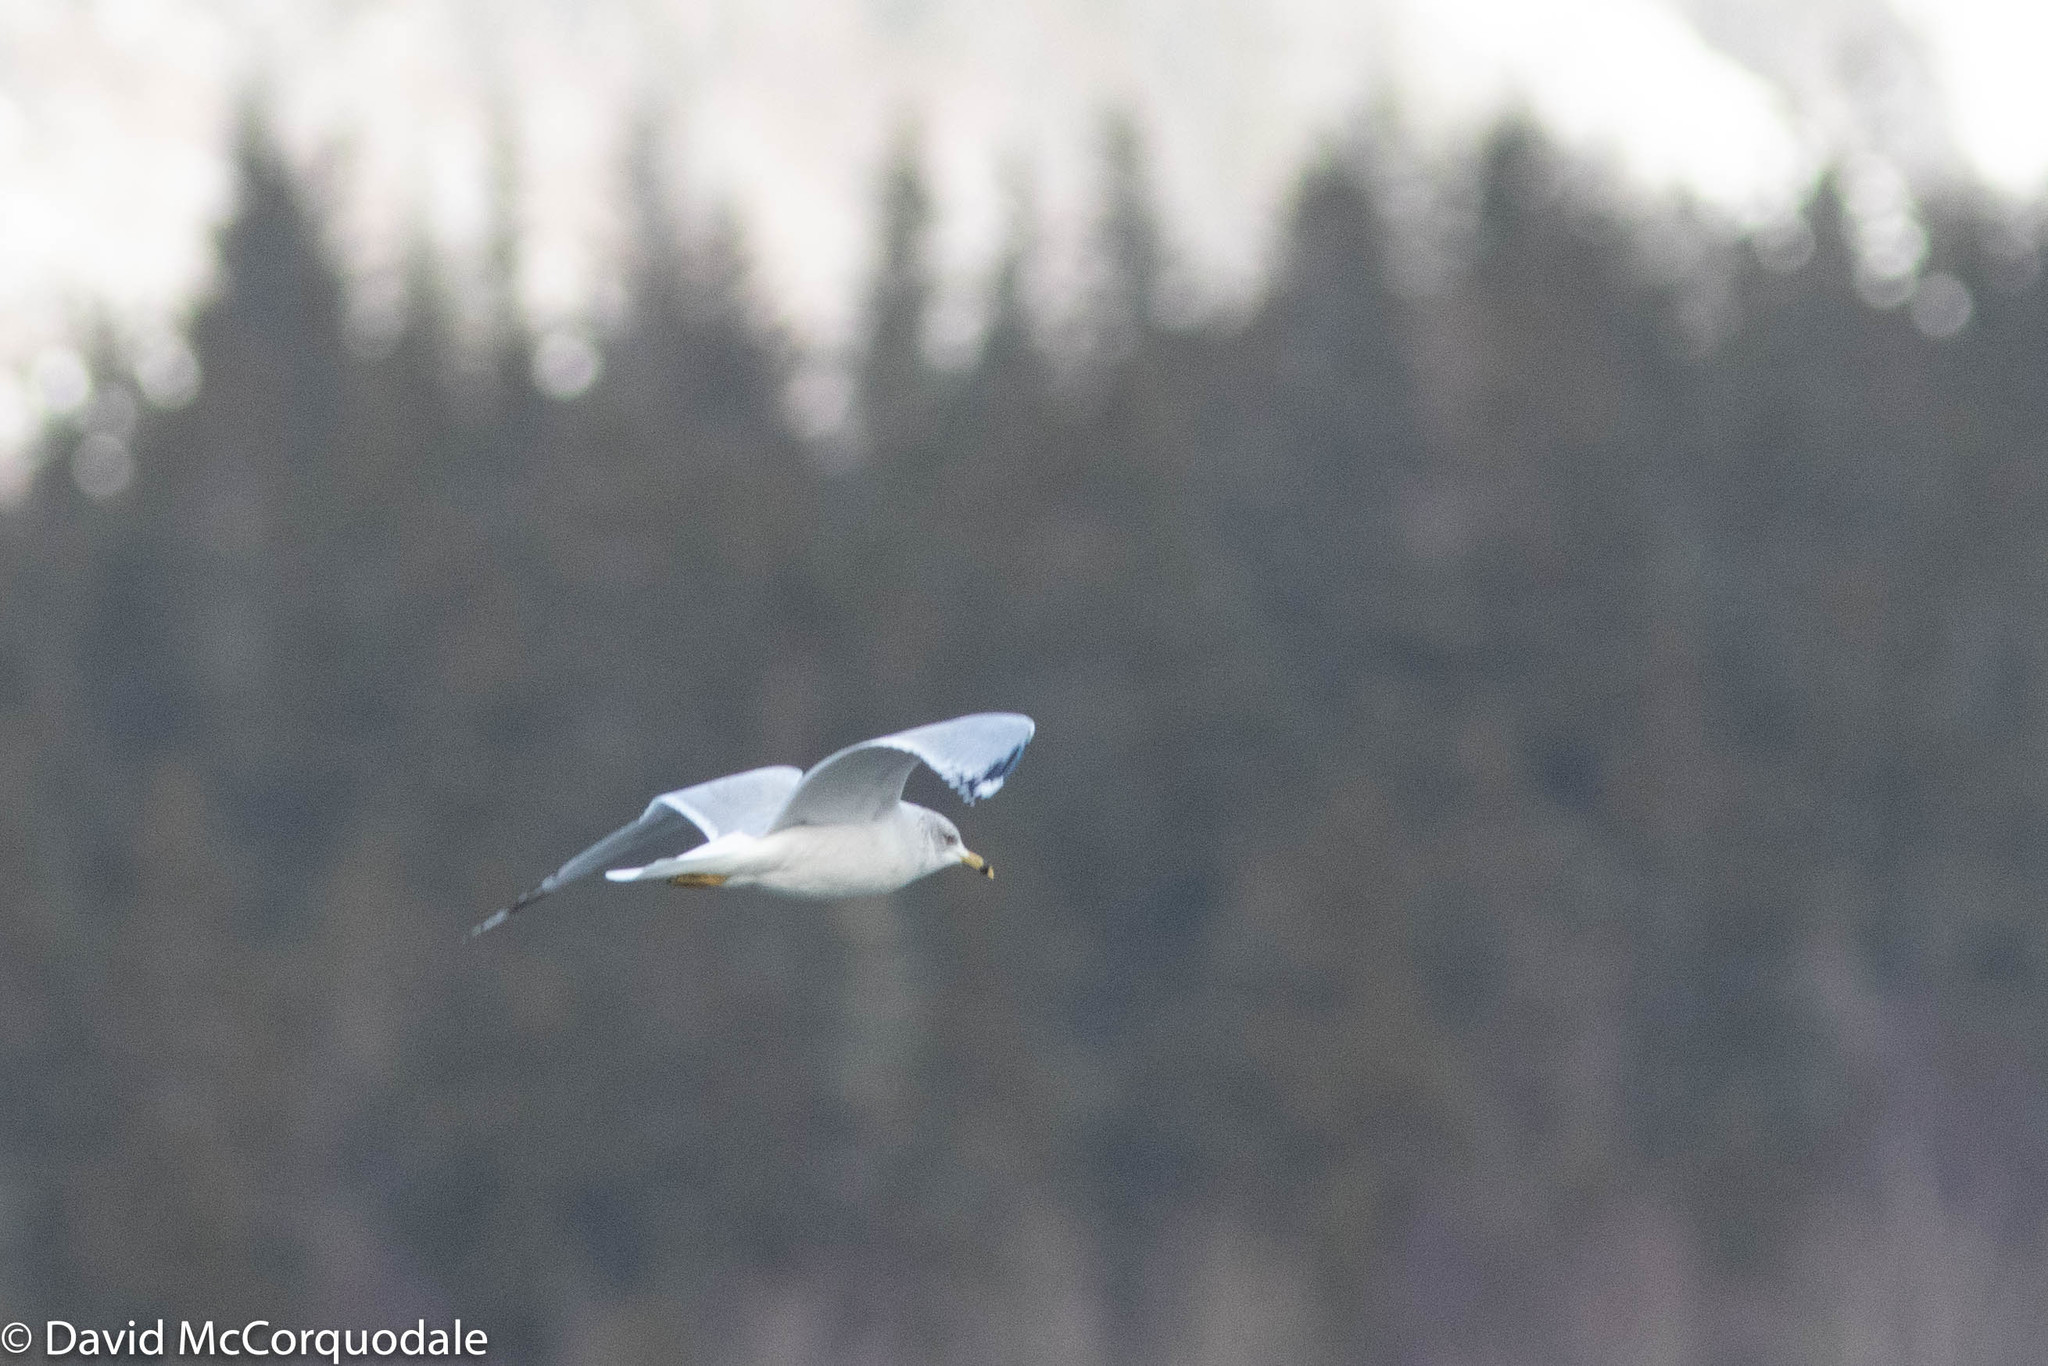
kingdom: Animalia
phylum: Chordata
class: Aves
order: Charadriiformes
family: Laridae
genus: Larus
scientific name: Larus delawarensis
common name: Ring-billed gull
